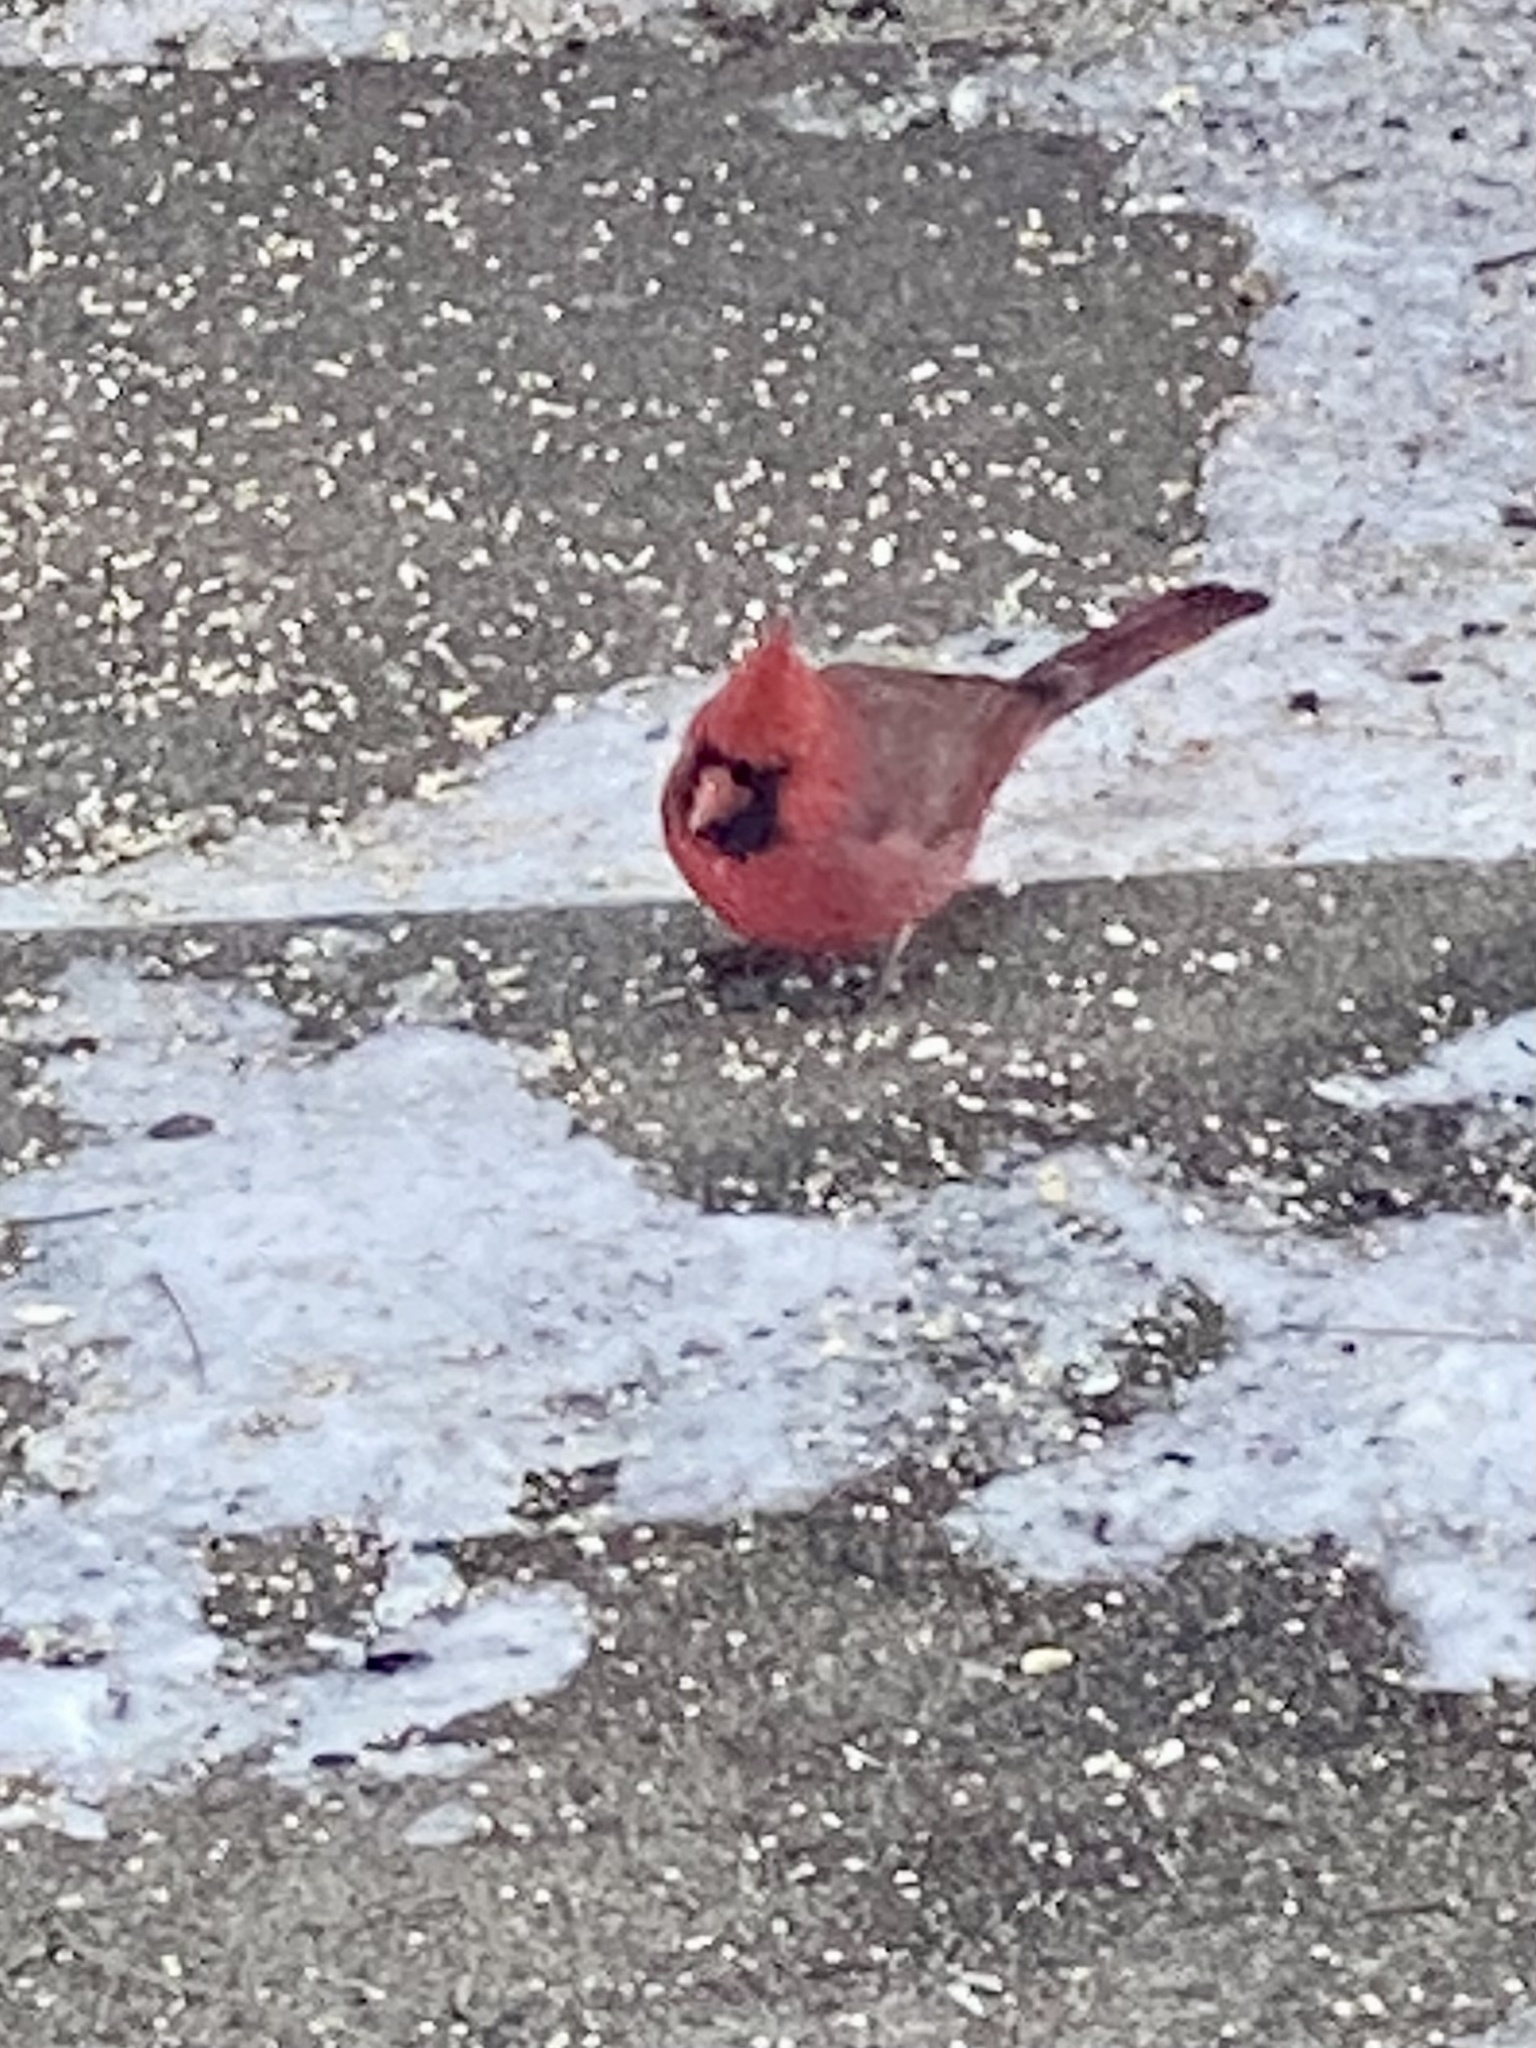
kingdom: Animalia
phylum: Chordata
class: Aves
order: Passeriformes
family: Cardinalidae
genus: Cardinalis
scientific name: Cardinalis cardinalis
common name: Northern cardinal
